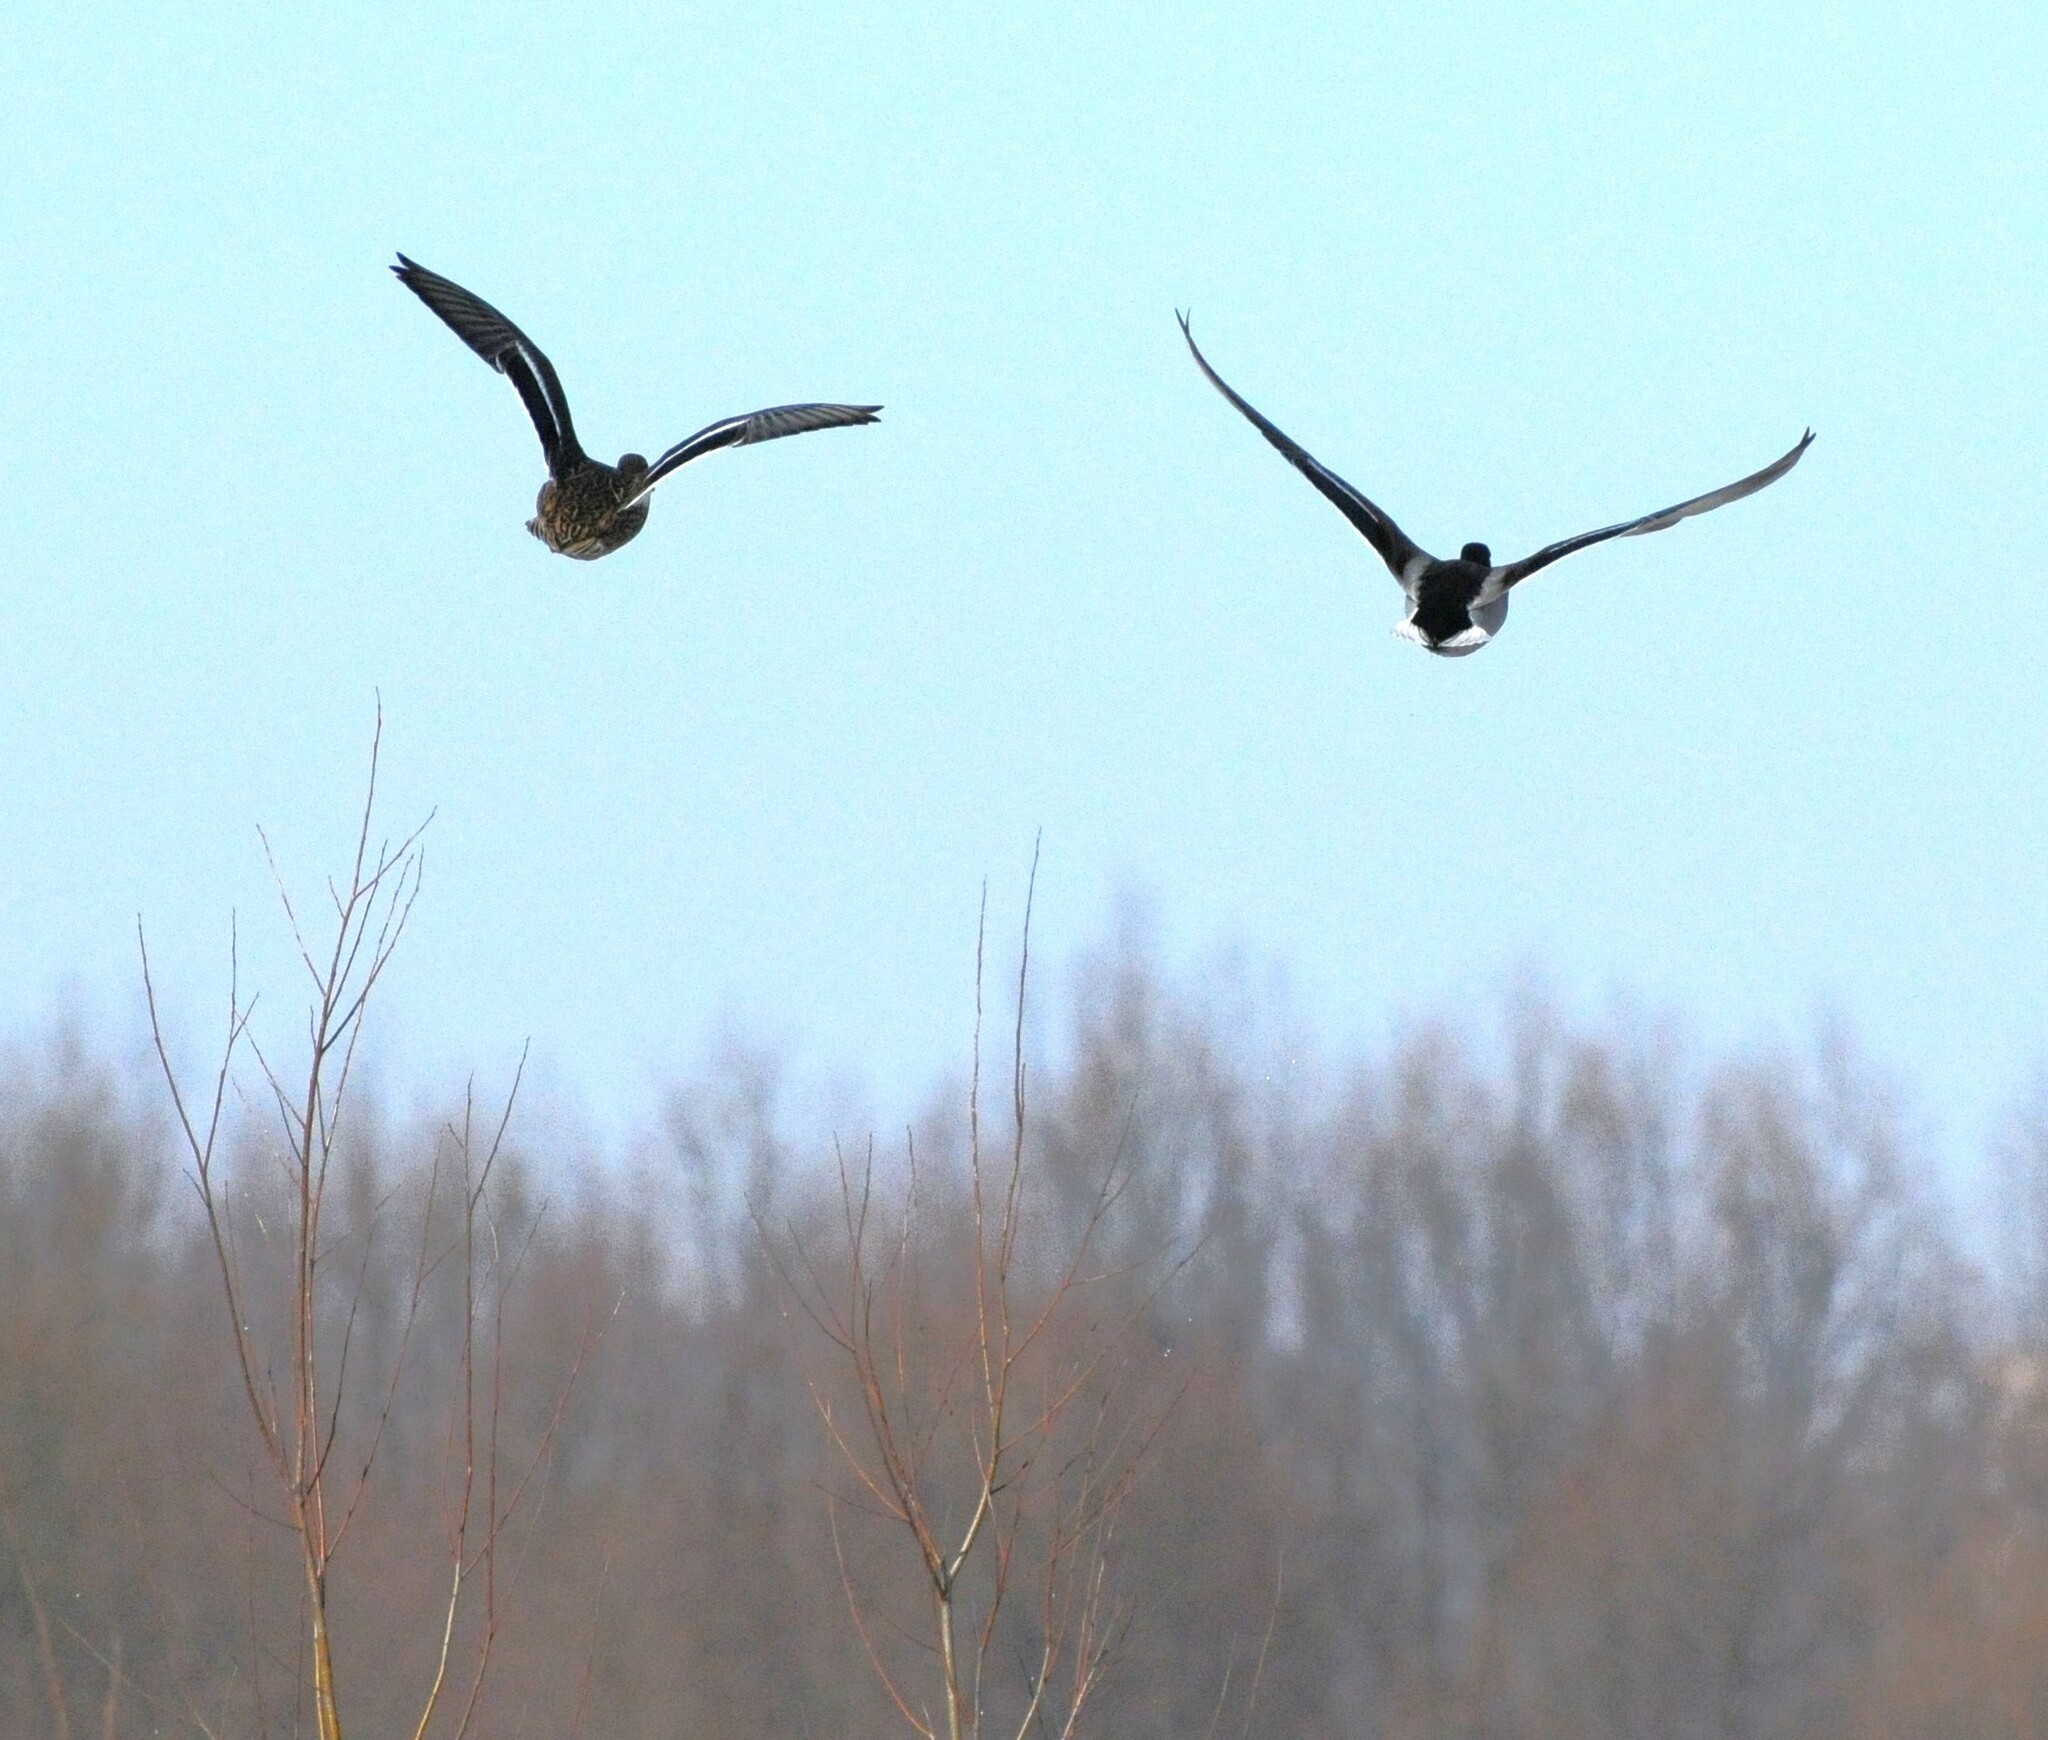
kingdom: Animalia
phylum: Chordata
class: Aves
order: Anseriformes
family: Anatidae
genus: Anas
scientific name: Anas platyrhynchos
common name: Mallard
